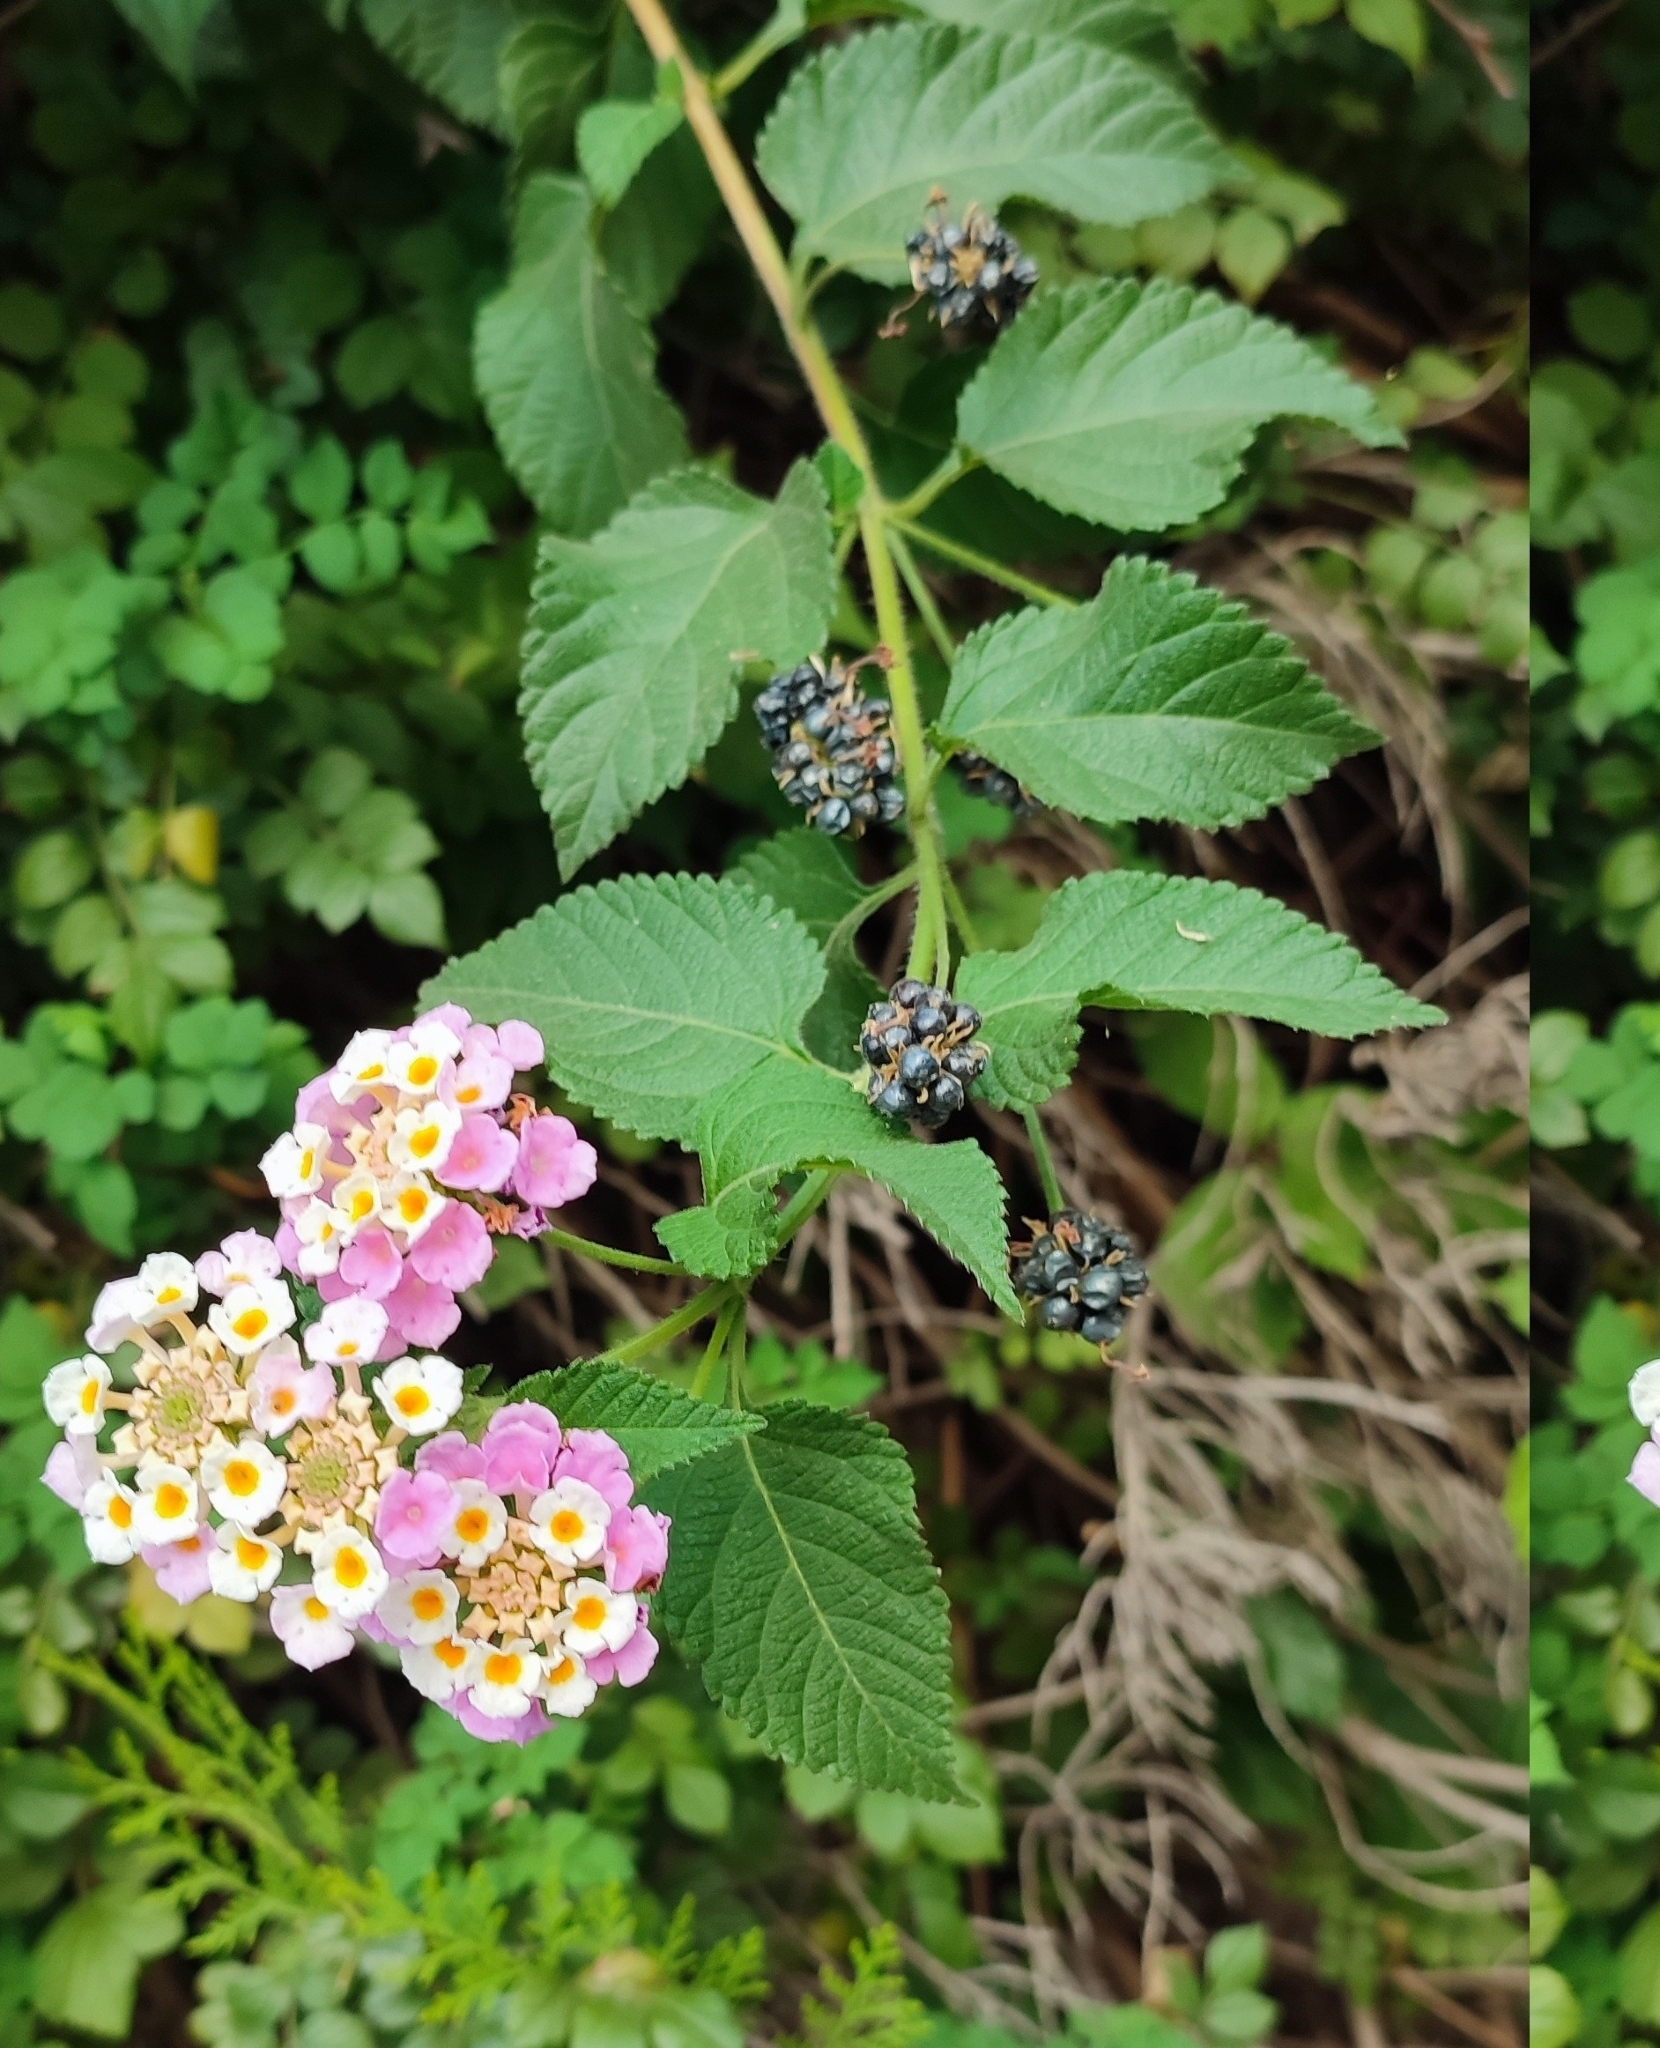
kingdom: Plantae
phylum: Tracheophyta
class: Magnoliopsida
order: Lamiales
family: Verbenaceae
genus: Lantana
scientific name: Lantana camara
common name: Lantana
